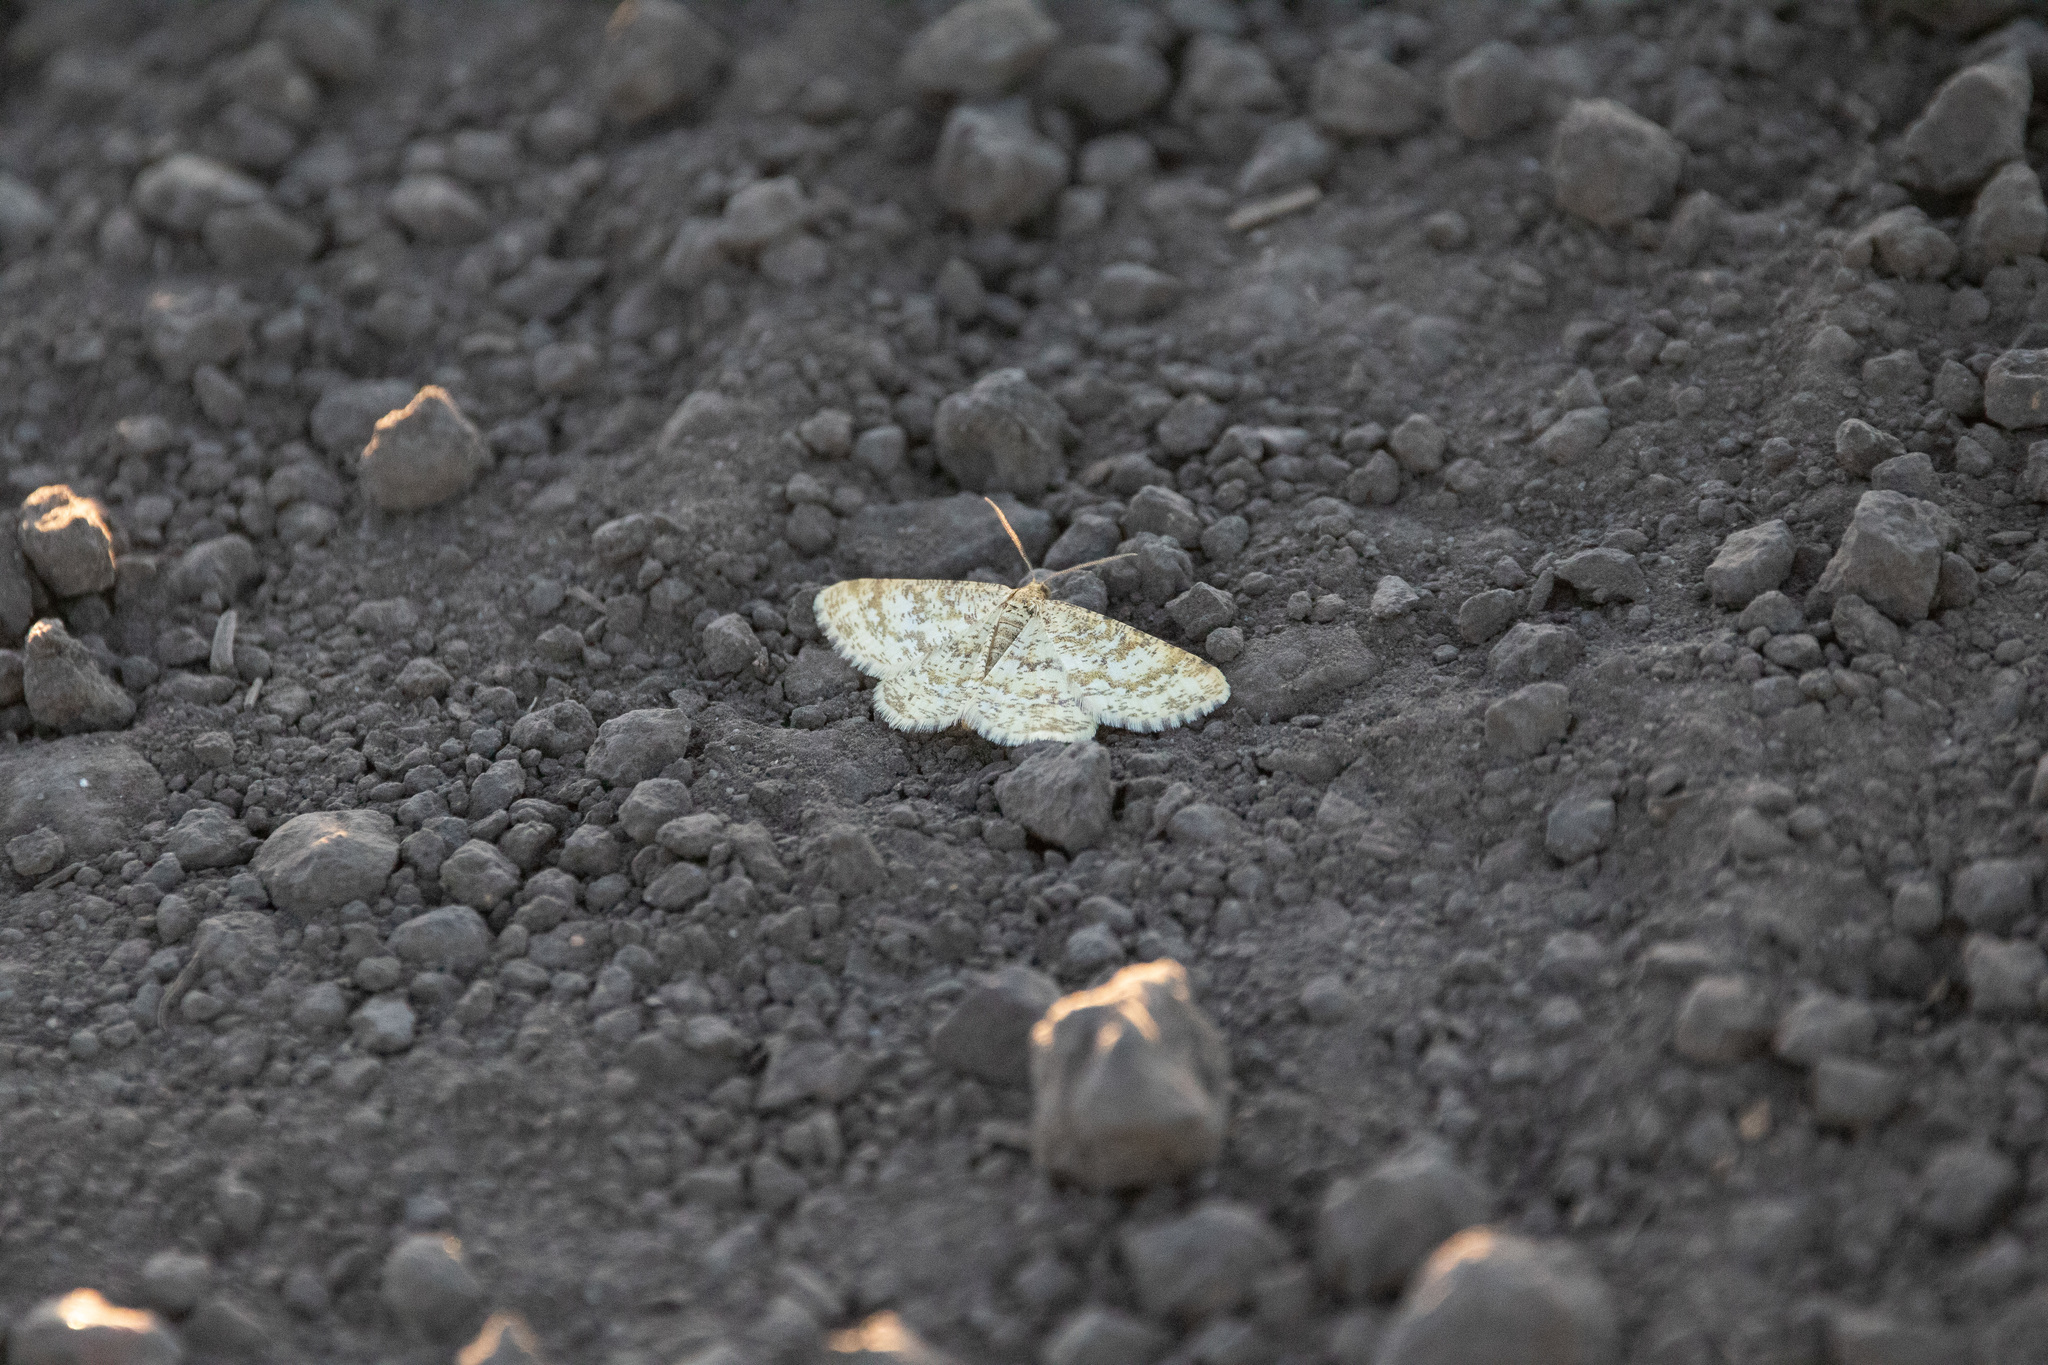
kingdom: Animalia
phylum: Arthropoda
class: Insecta
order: Lepidoptera
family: Geometridae
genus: Heliomata
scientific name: Heliomata glarearia
